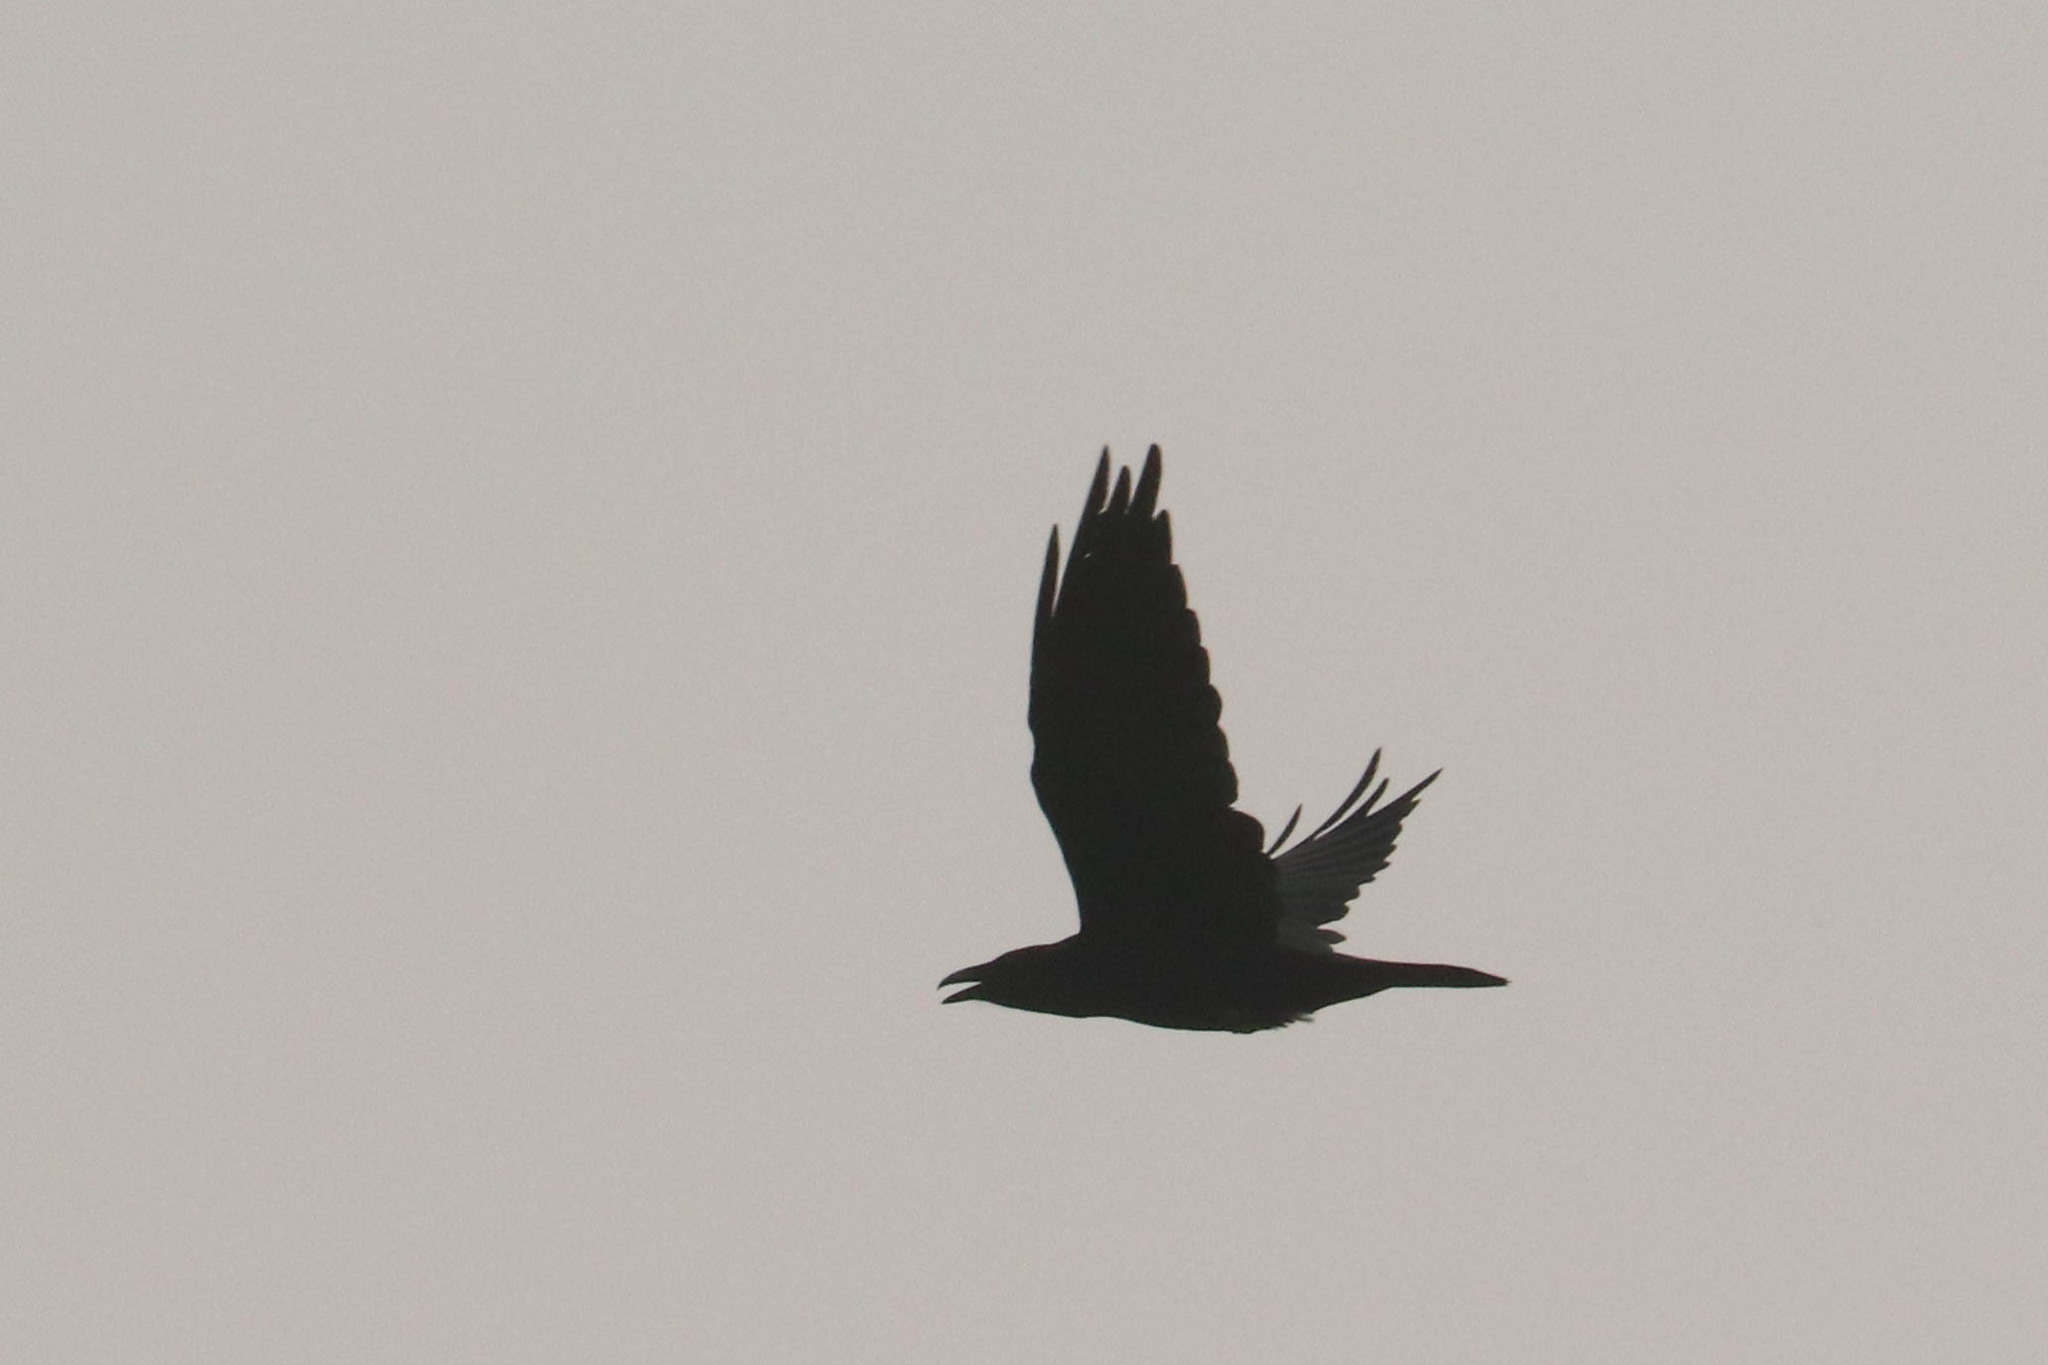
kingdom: Animalia
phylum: Chordata
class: Aves
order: Passeriformes
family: Corvidae
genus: Corvus
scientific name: Corvus corax
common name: Common raven
